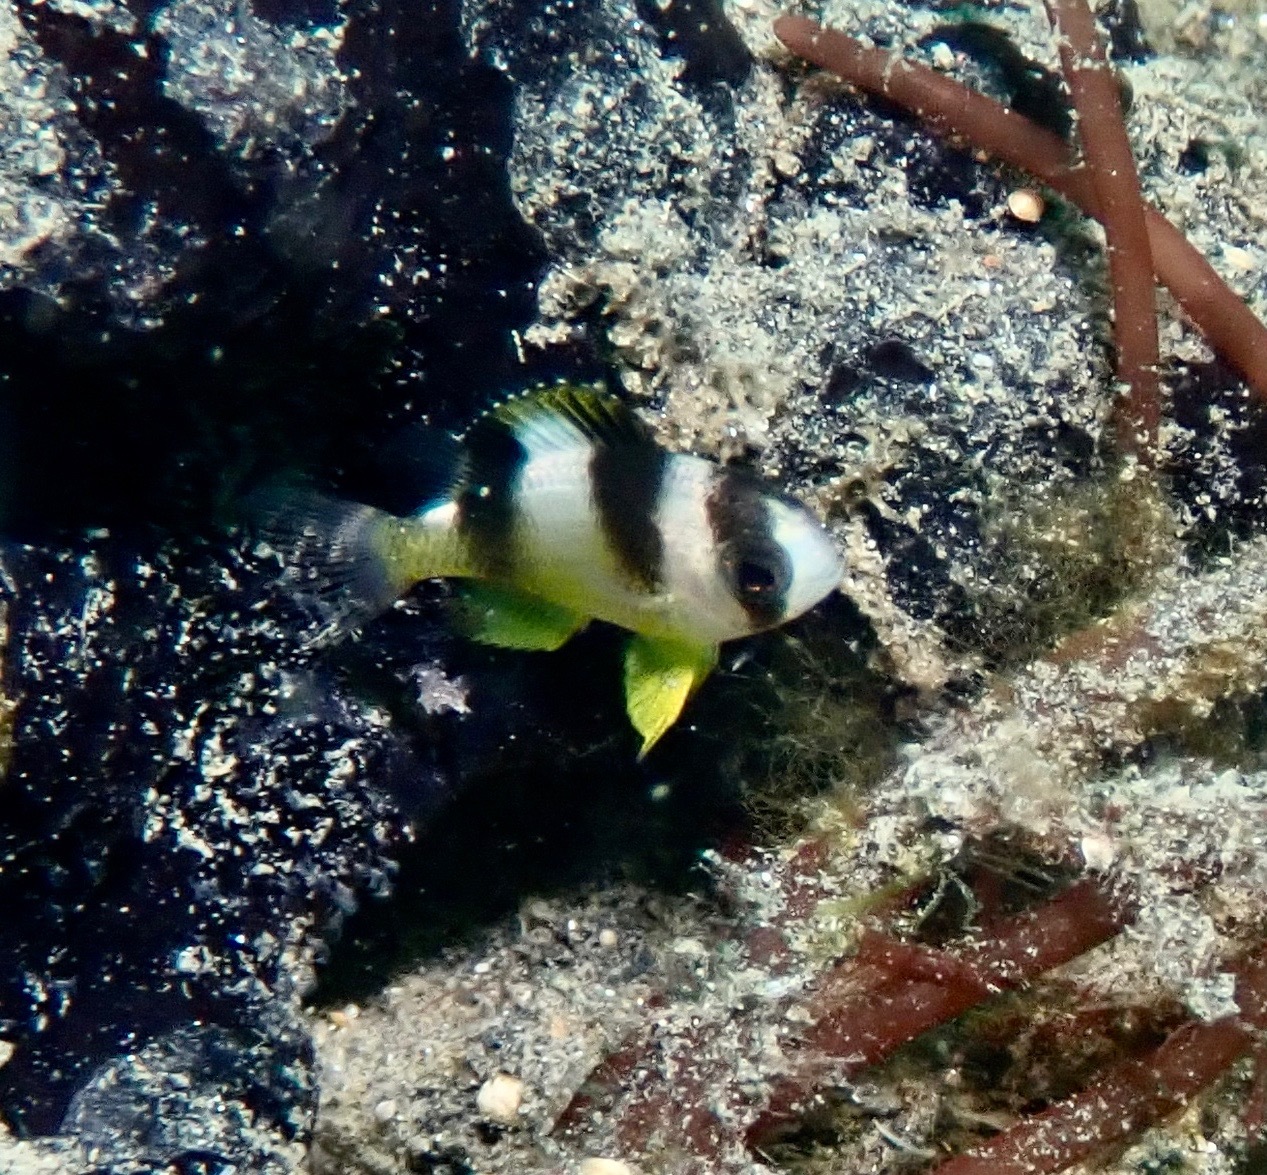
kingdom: Animalia
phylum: Chordata
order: Perciformes
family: Pomacentridae
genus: Amblypomacentrus
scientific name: Amblypomacentrus breviceps
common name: Black-banded demoiselle
